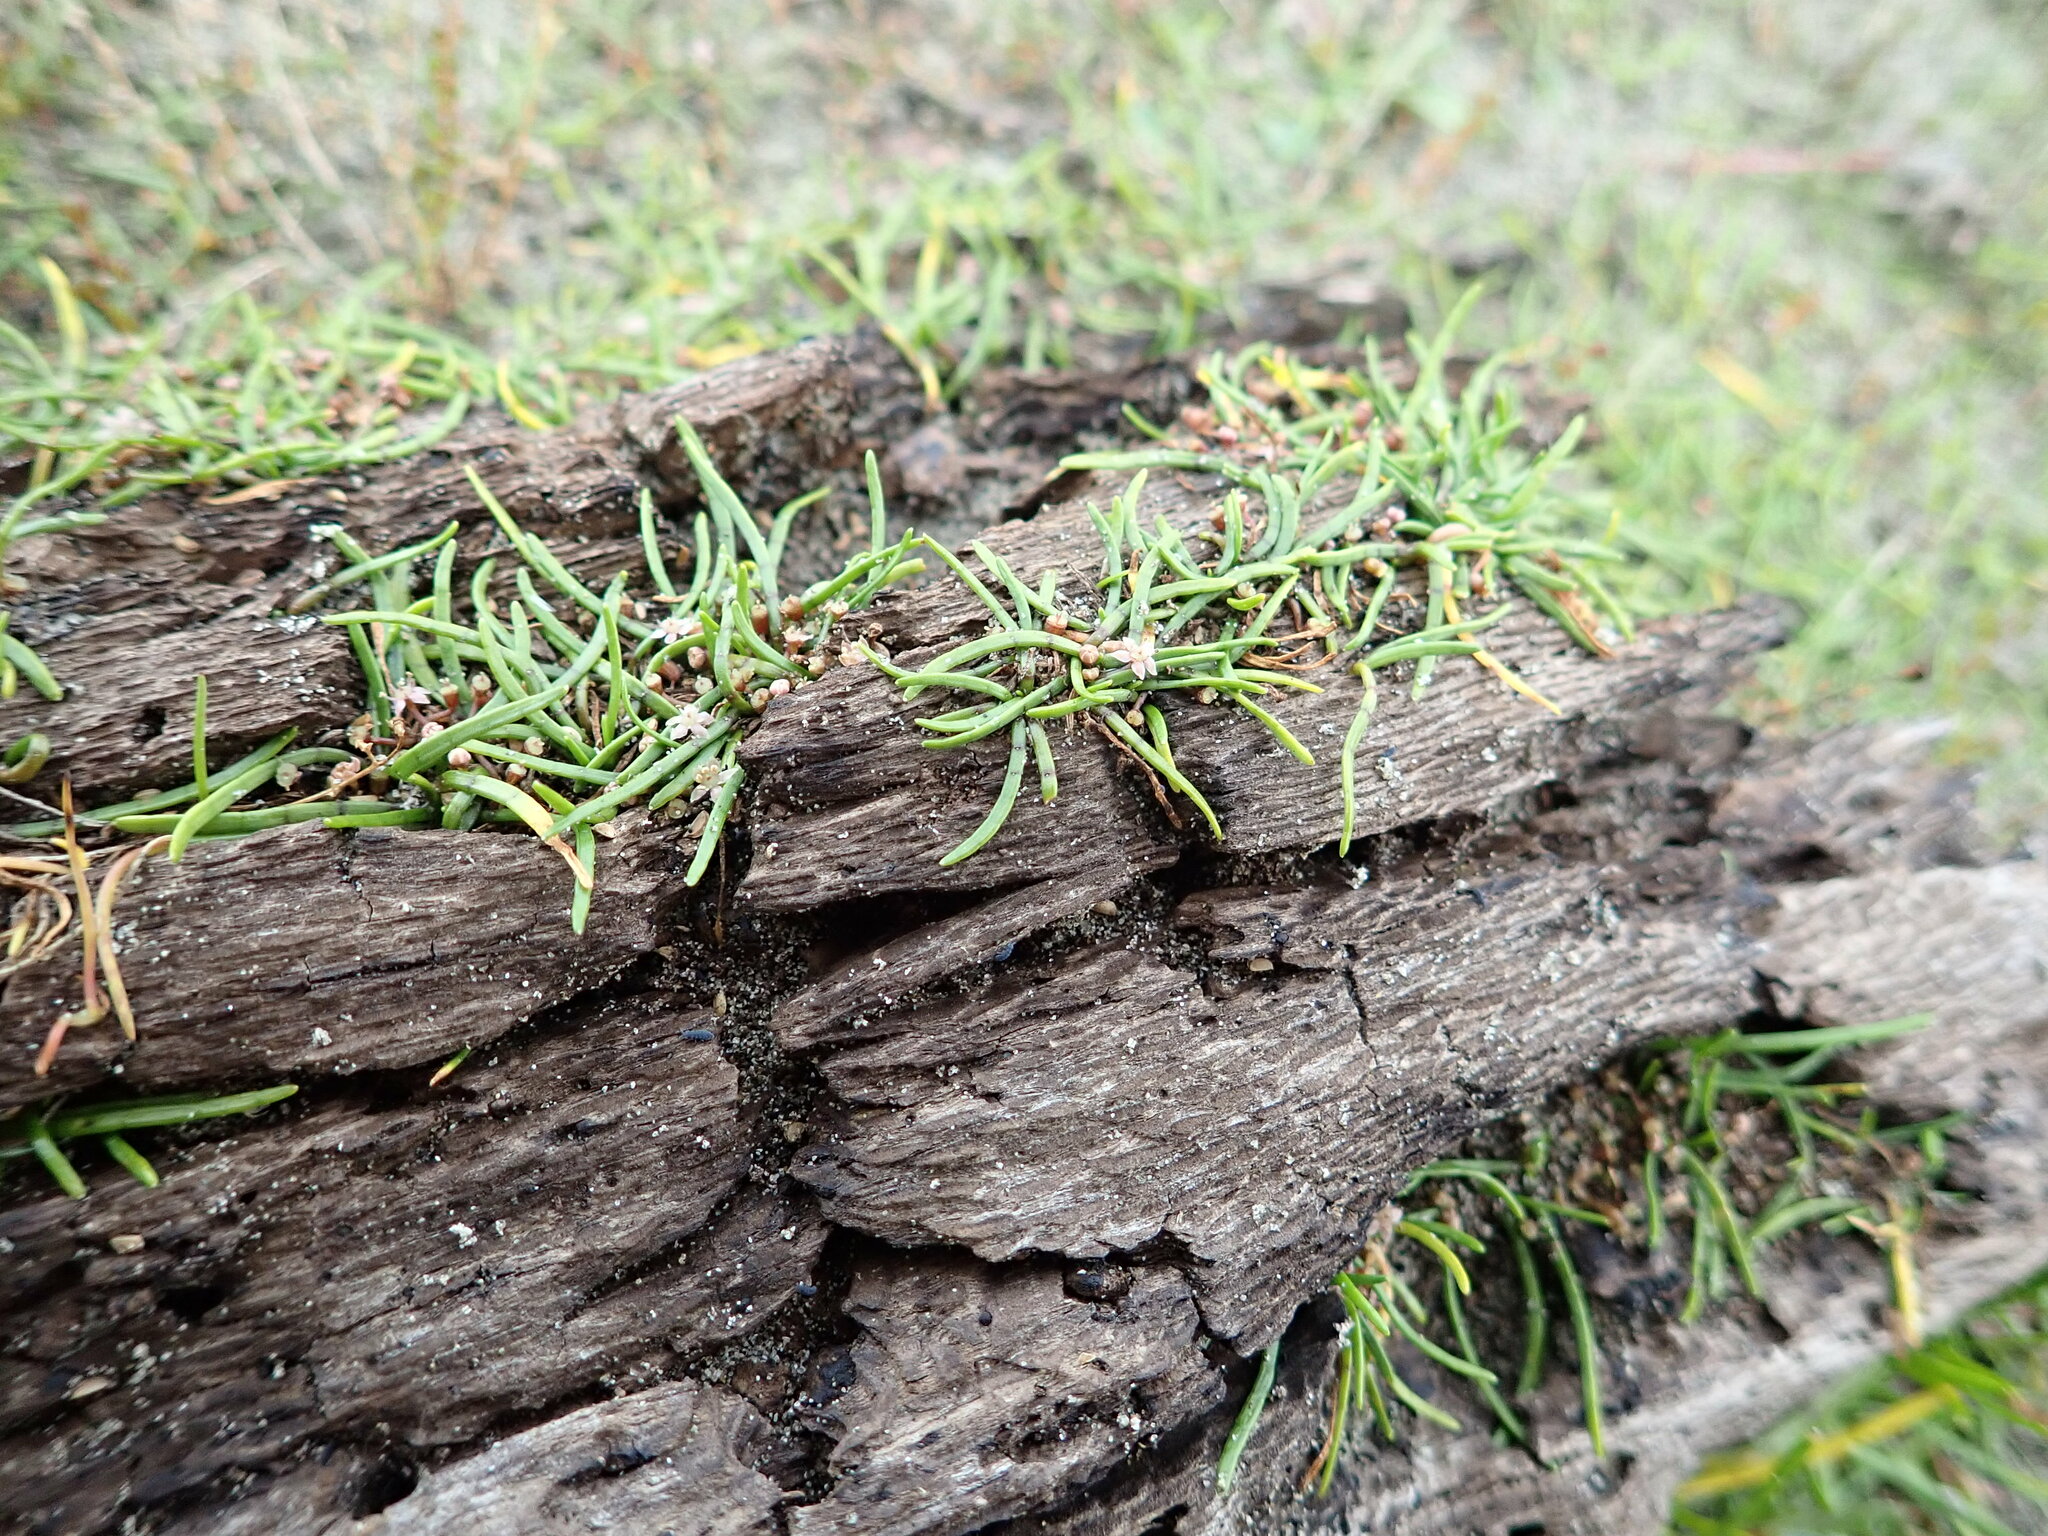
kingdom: Plantae
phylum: Tracheophyta
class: Magnoliopsida
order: Apiales
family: Apiaceae
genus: Lilaeopsis
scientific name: Lilaeopsis novae-zelandiae
